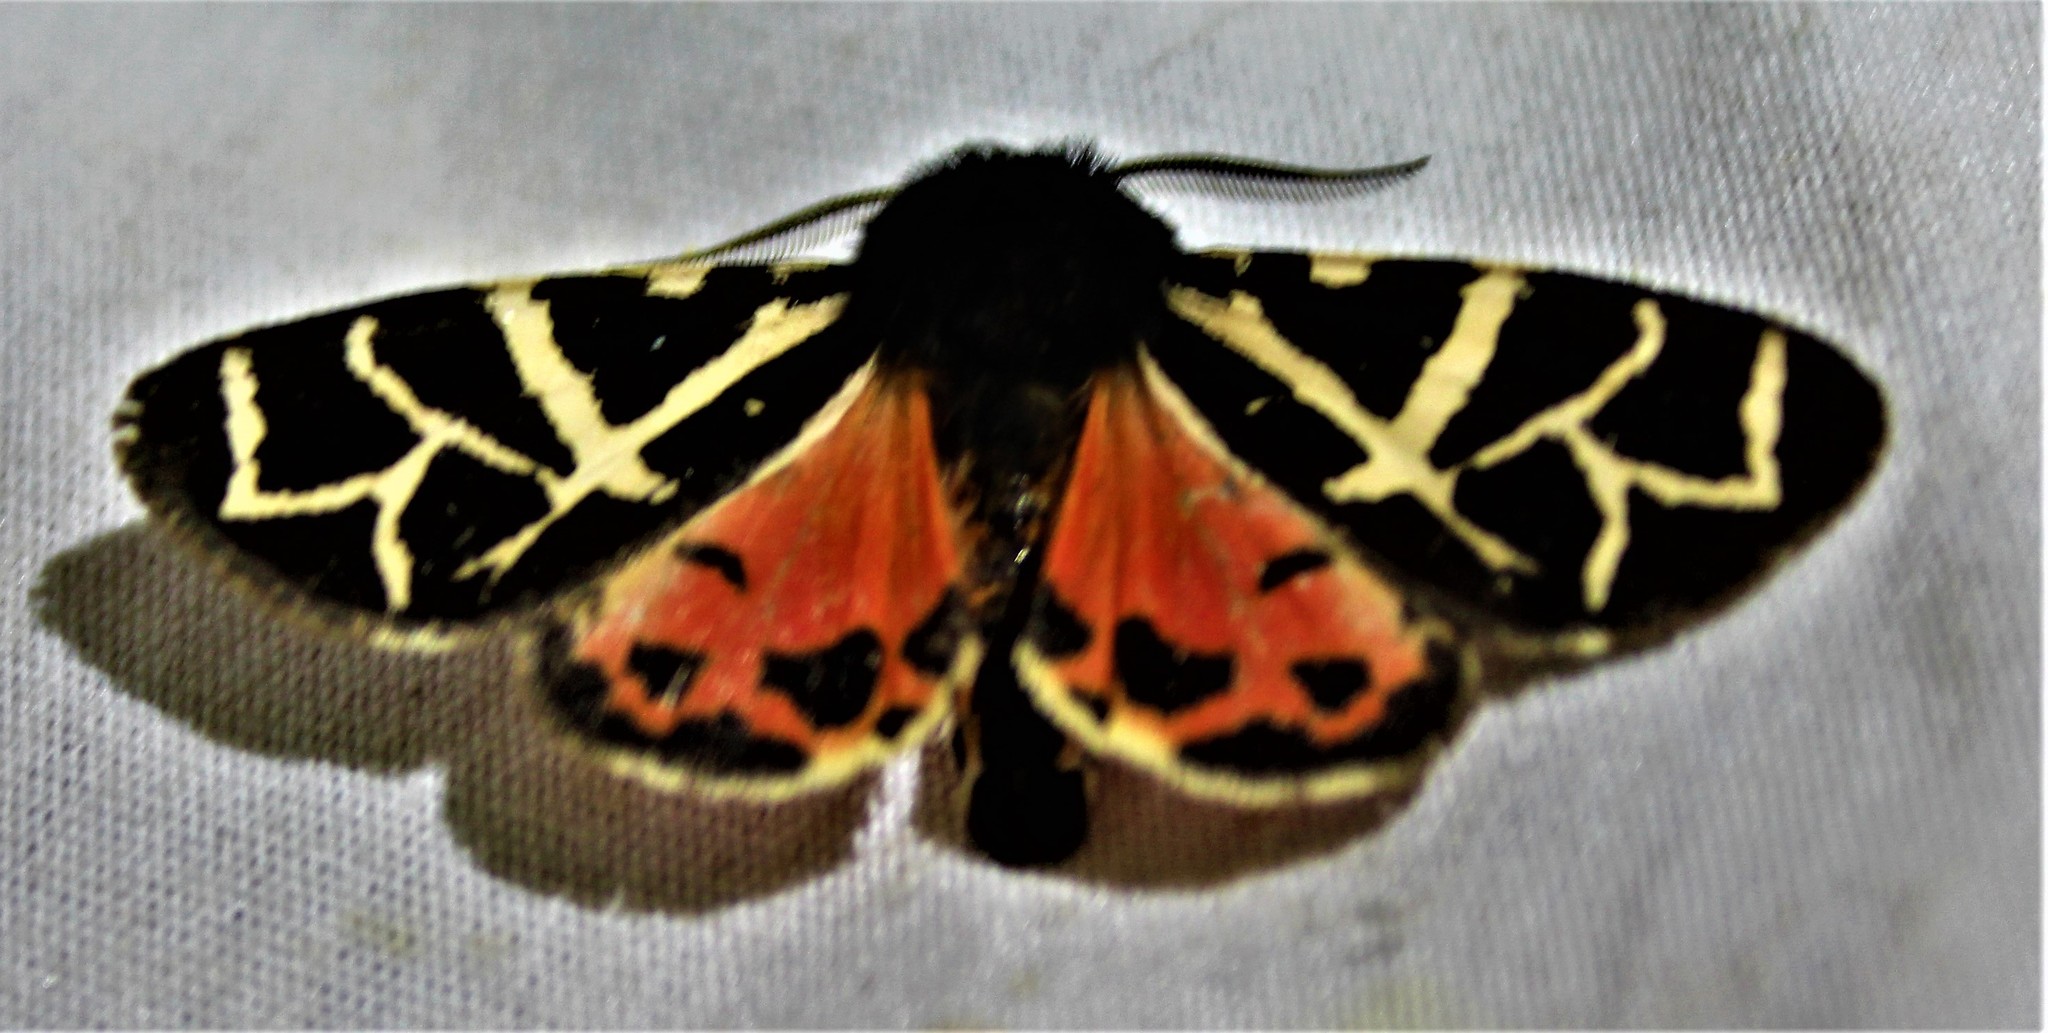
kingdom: Animalia
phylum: Arthropoda
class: Insecta
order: Lepidoptera
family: Erebidae
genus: Apantesis
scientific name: Apantesis
